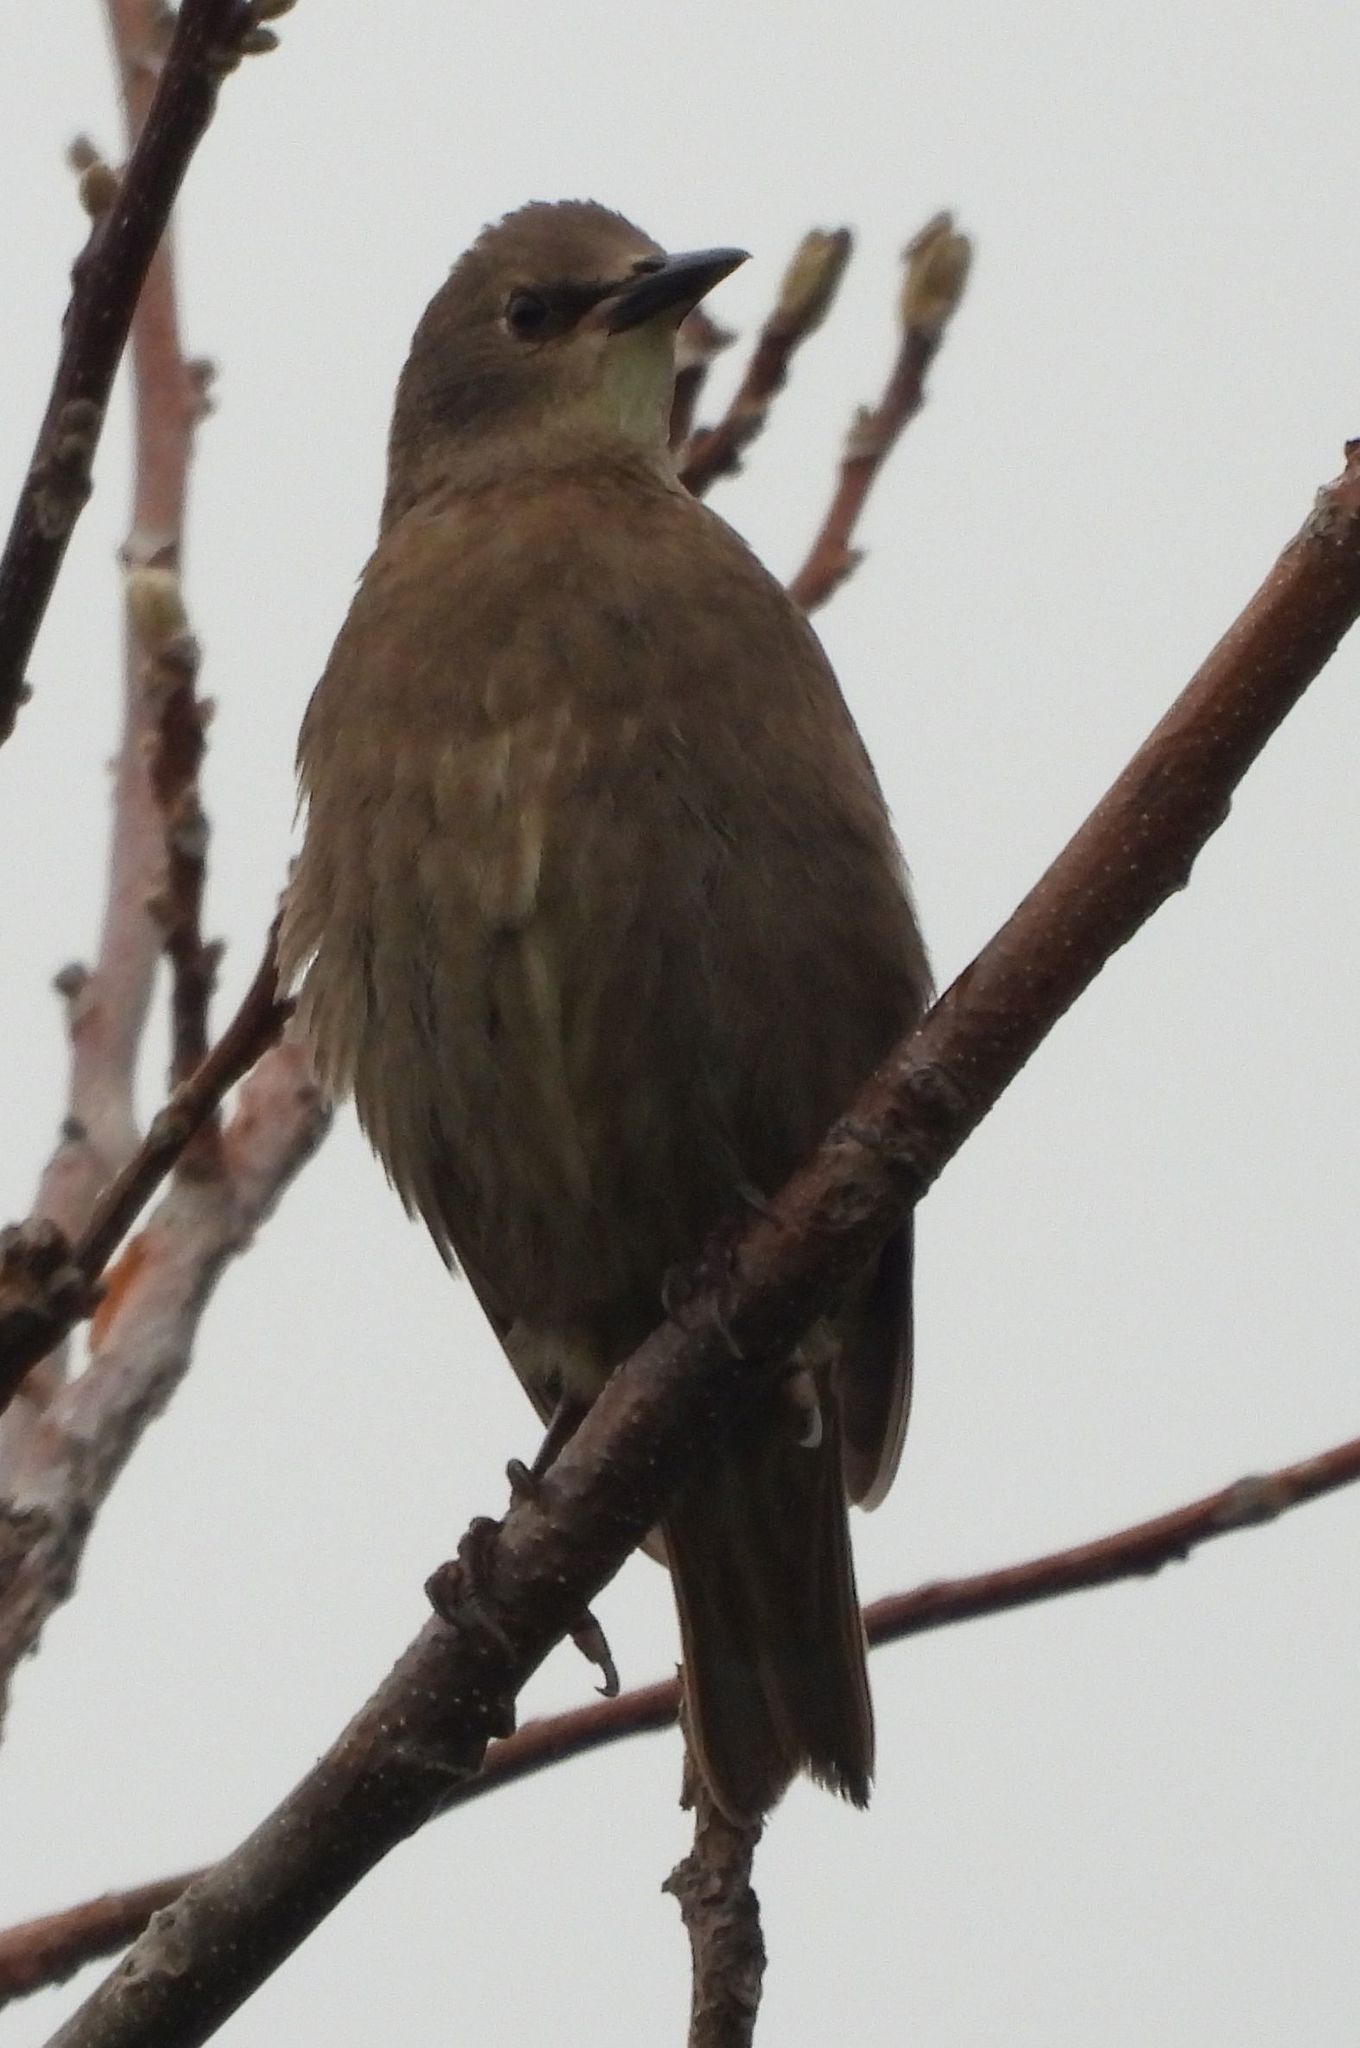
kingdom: Animalia
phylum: Chordata
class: Aves
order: Passeriformes
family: Sturnidae
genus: Sturnus
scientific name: Sturnus vulgaris
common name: Common starling
